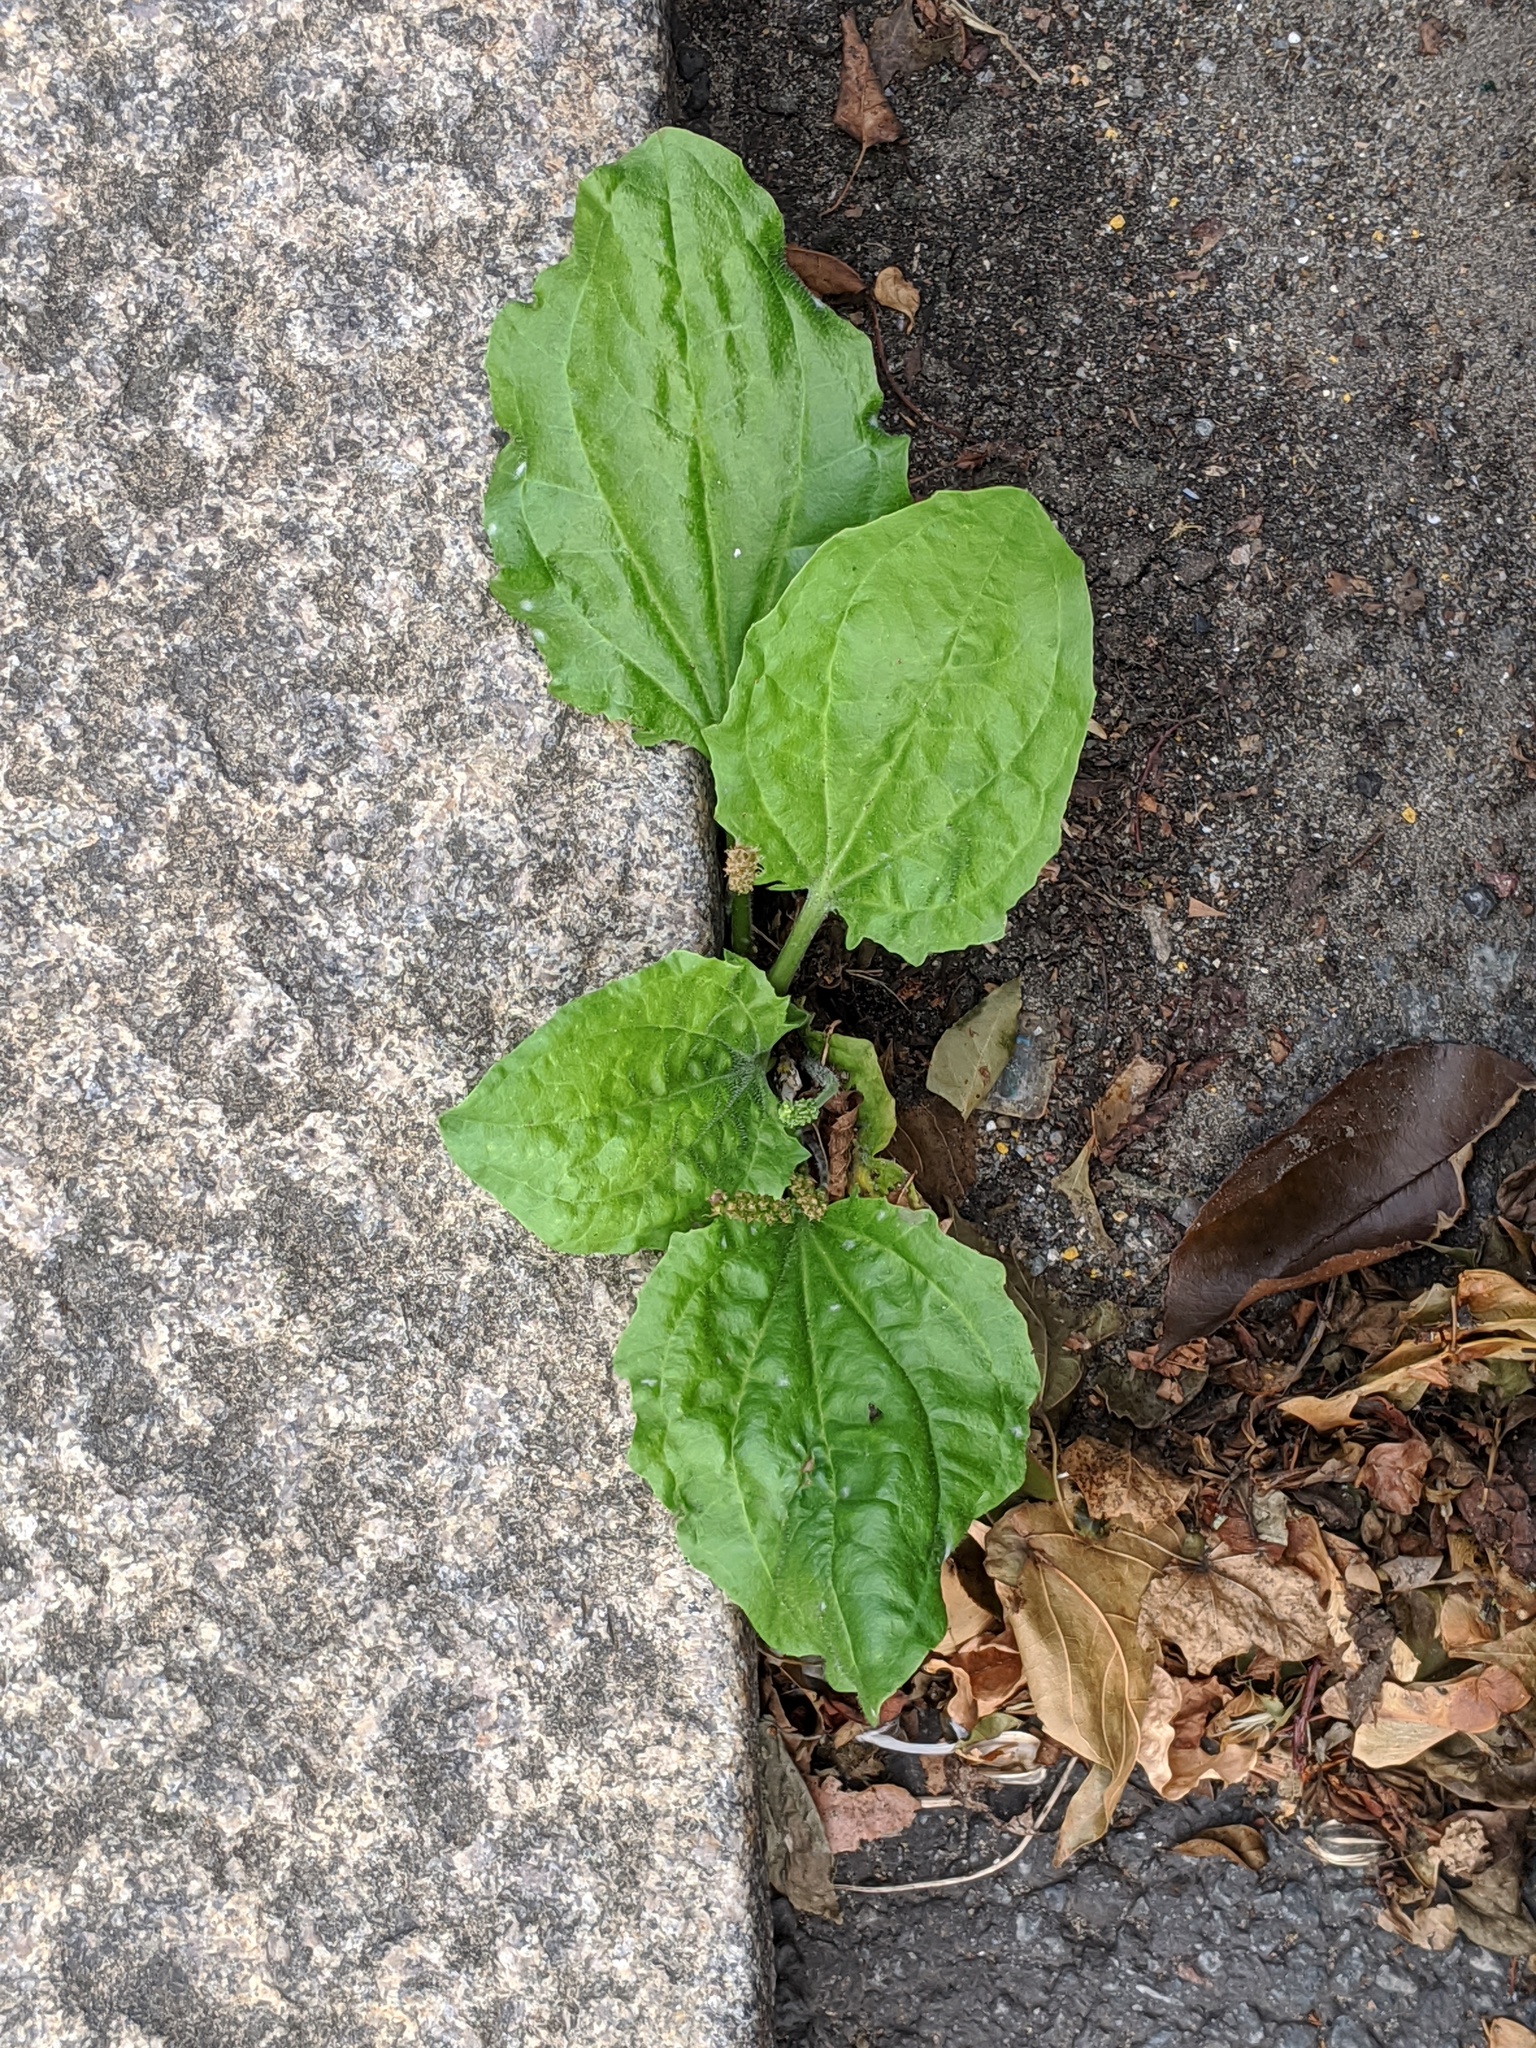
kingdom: Plantae
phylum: Tracheophyta
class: Magnoliopsida
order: Lamiales
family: Plantaginaceae
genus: Plantago
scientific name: Plantago major
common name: Common plantain
